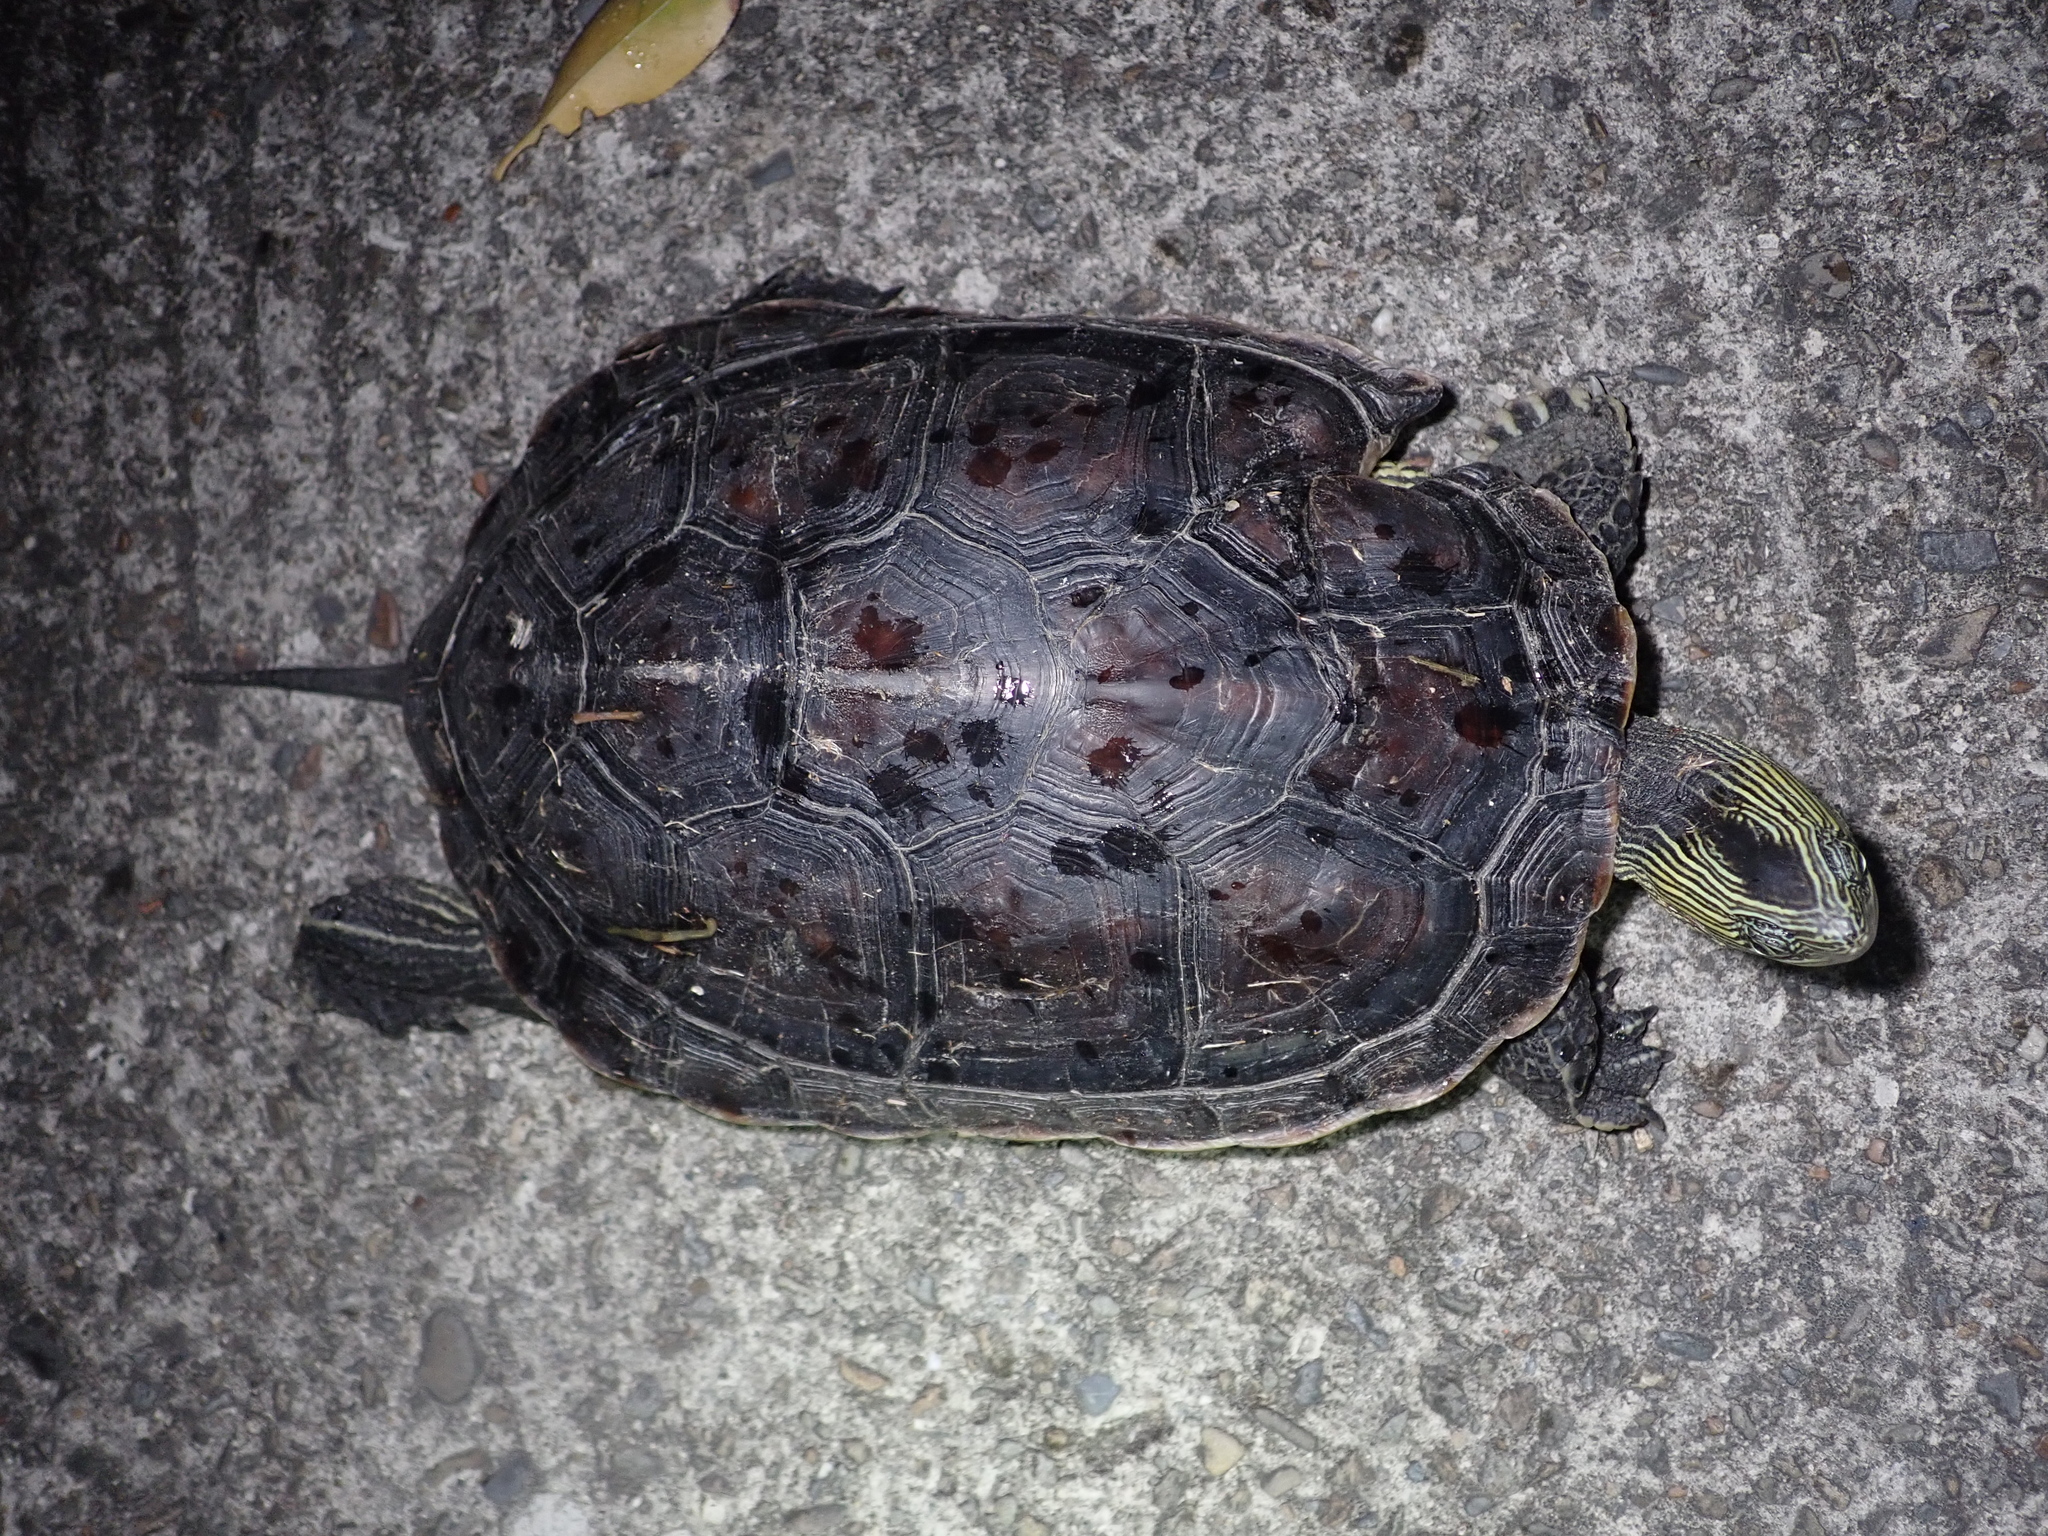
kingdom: Animalia
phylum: Chordata
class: Testudines
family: Geoemydidae
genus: Mauremys
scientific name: Mauremys sinensis
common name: Chinese stripe-necked turtle
